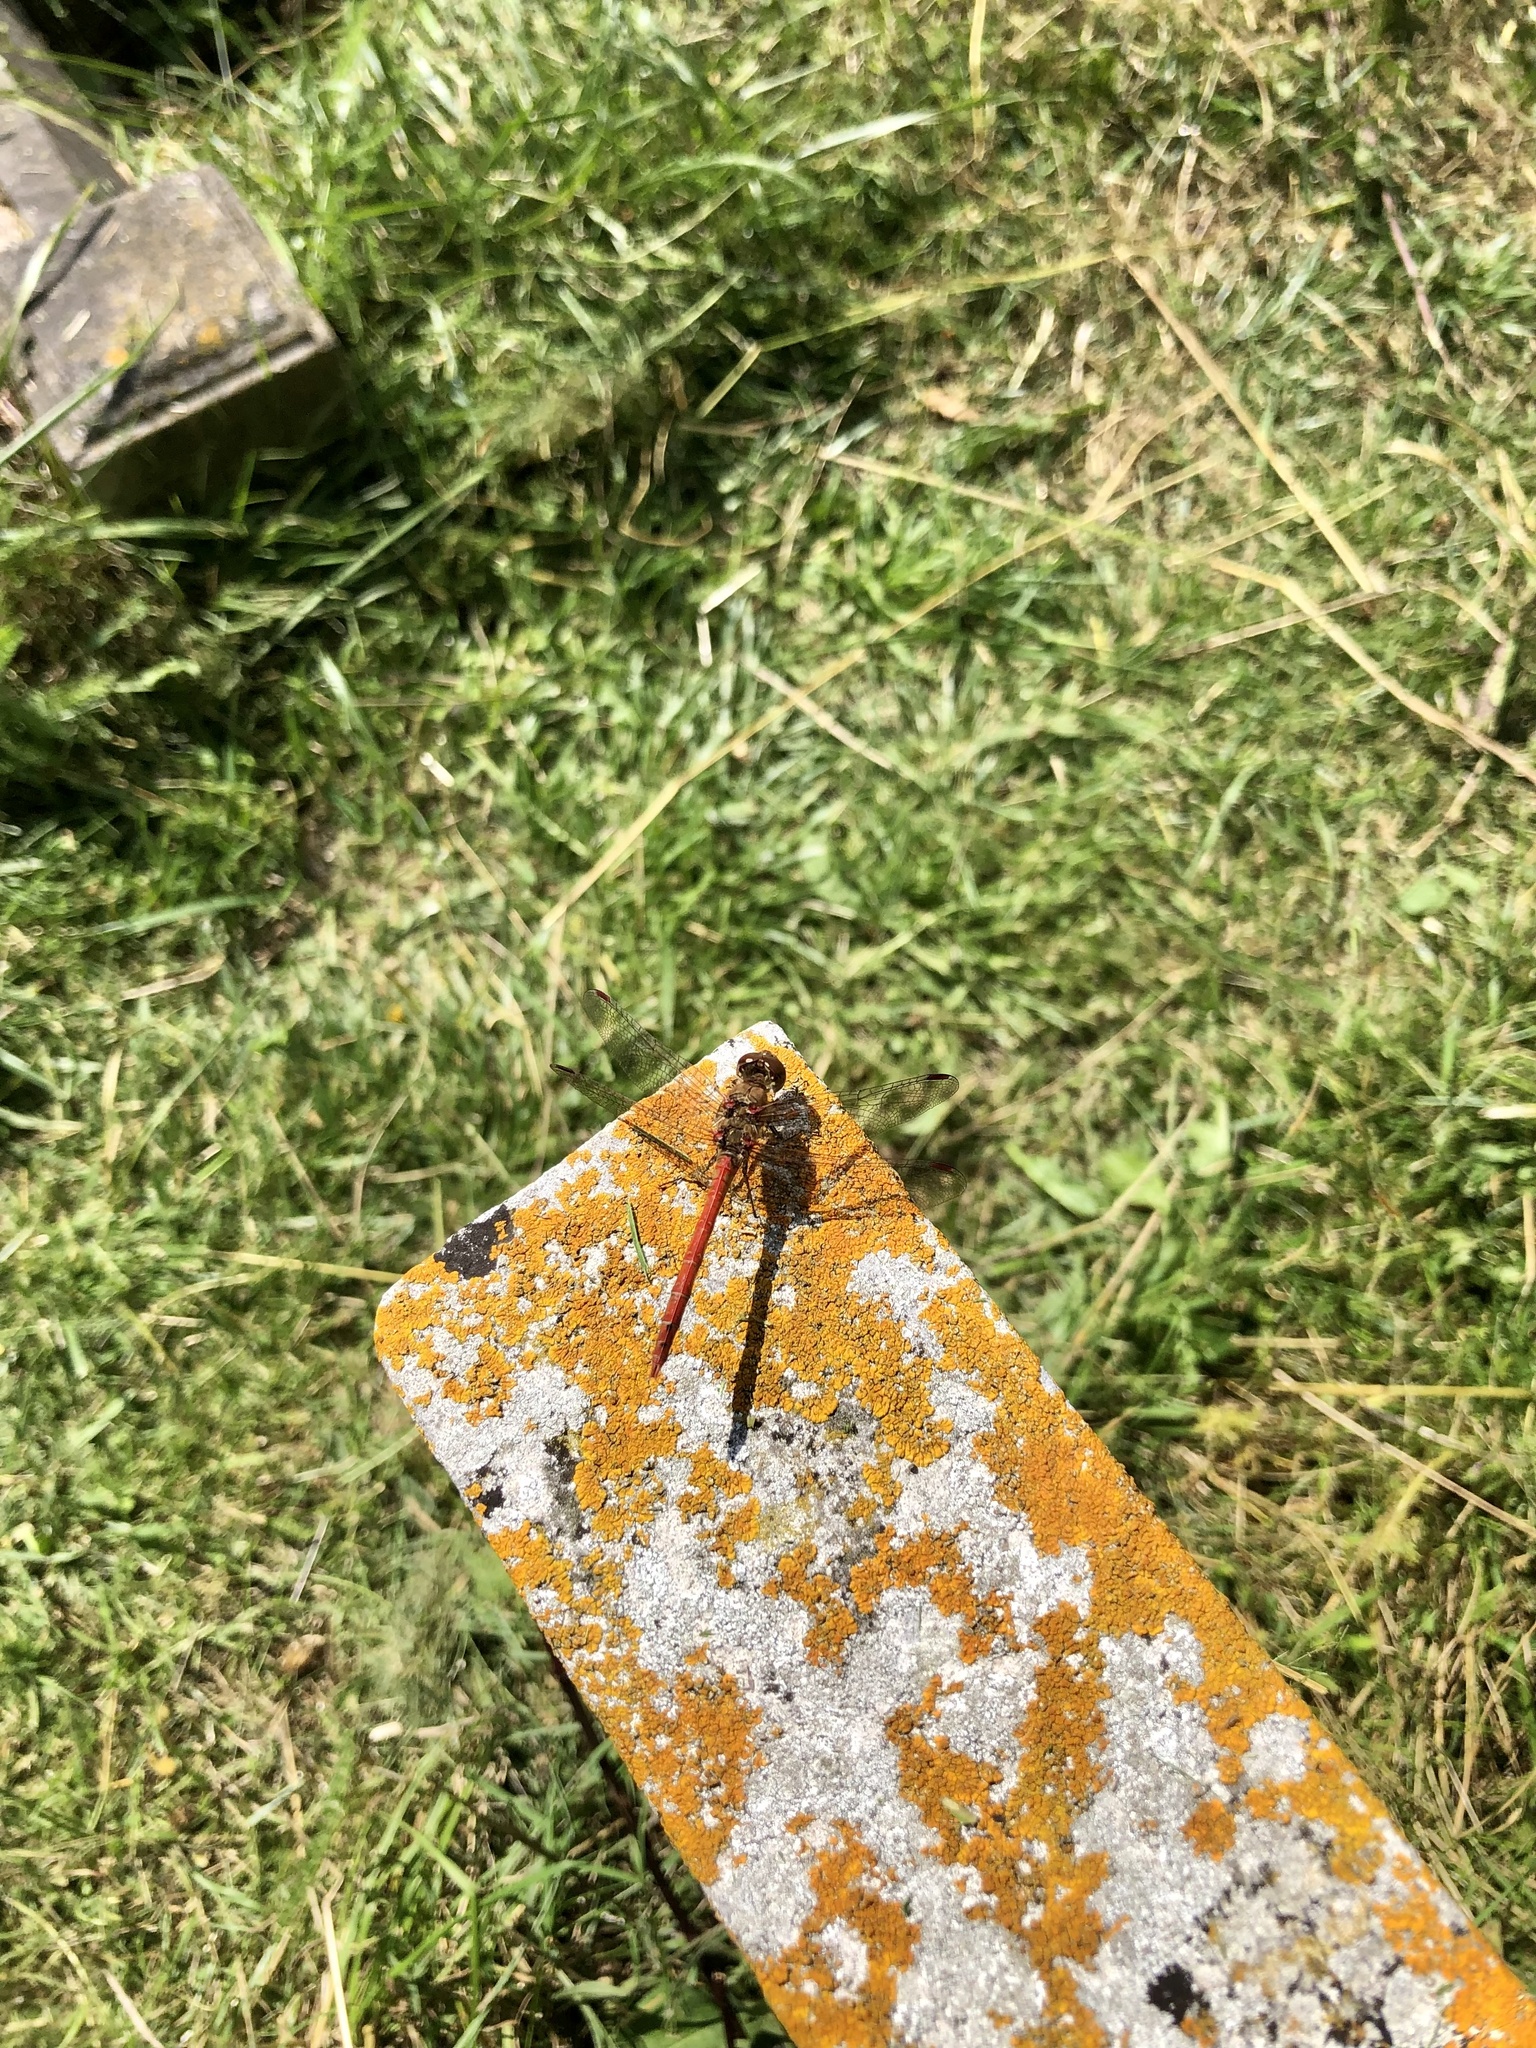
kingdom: Animalia
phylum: Arthropoda
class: Insecta
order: Odonata
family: Libellulidae
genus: Sympetrum
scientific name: Sympetrum striolatum
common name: Common darter
